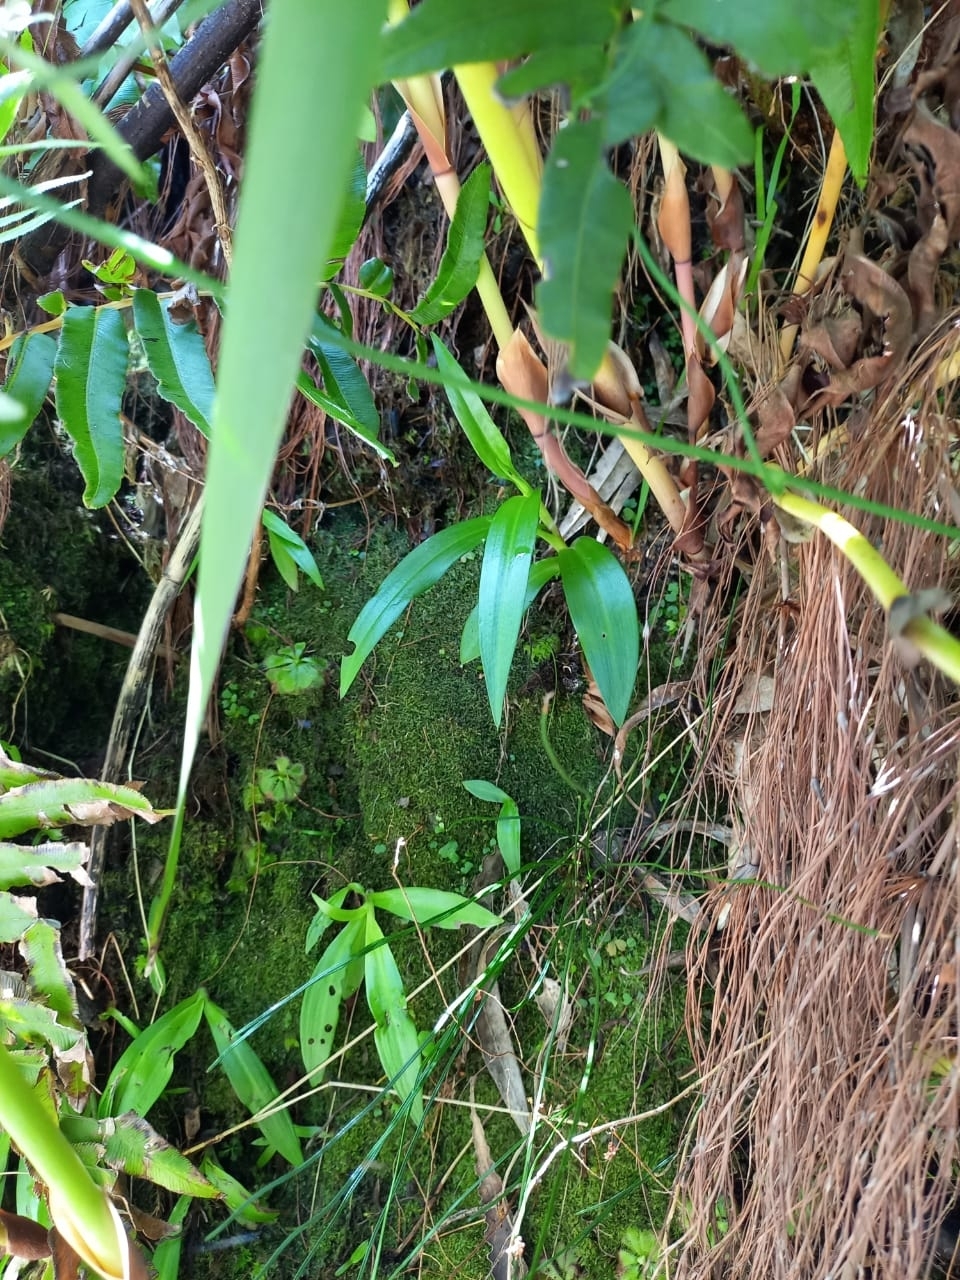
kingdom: Plantae
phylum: Tracheophyta
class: Liliopsida
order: Asparagales
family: Orchidaceae
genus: Disa
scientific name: Disa uniflora
